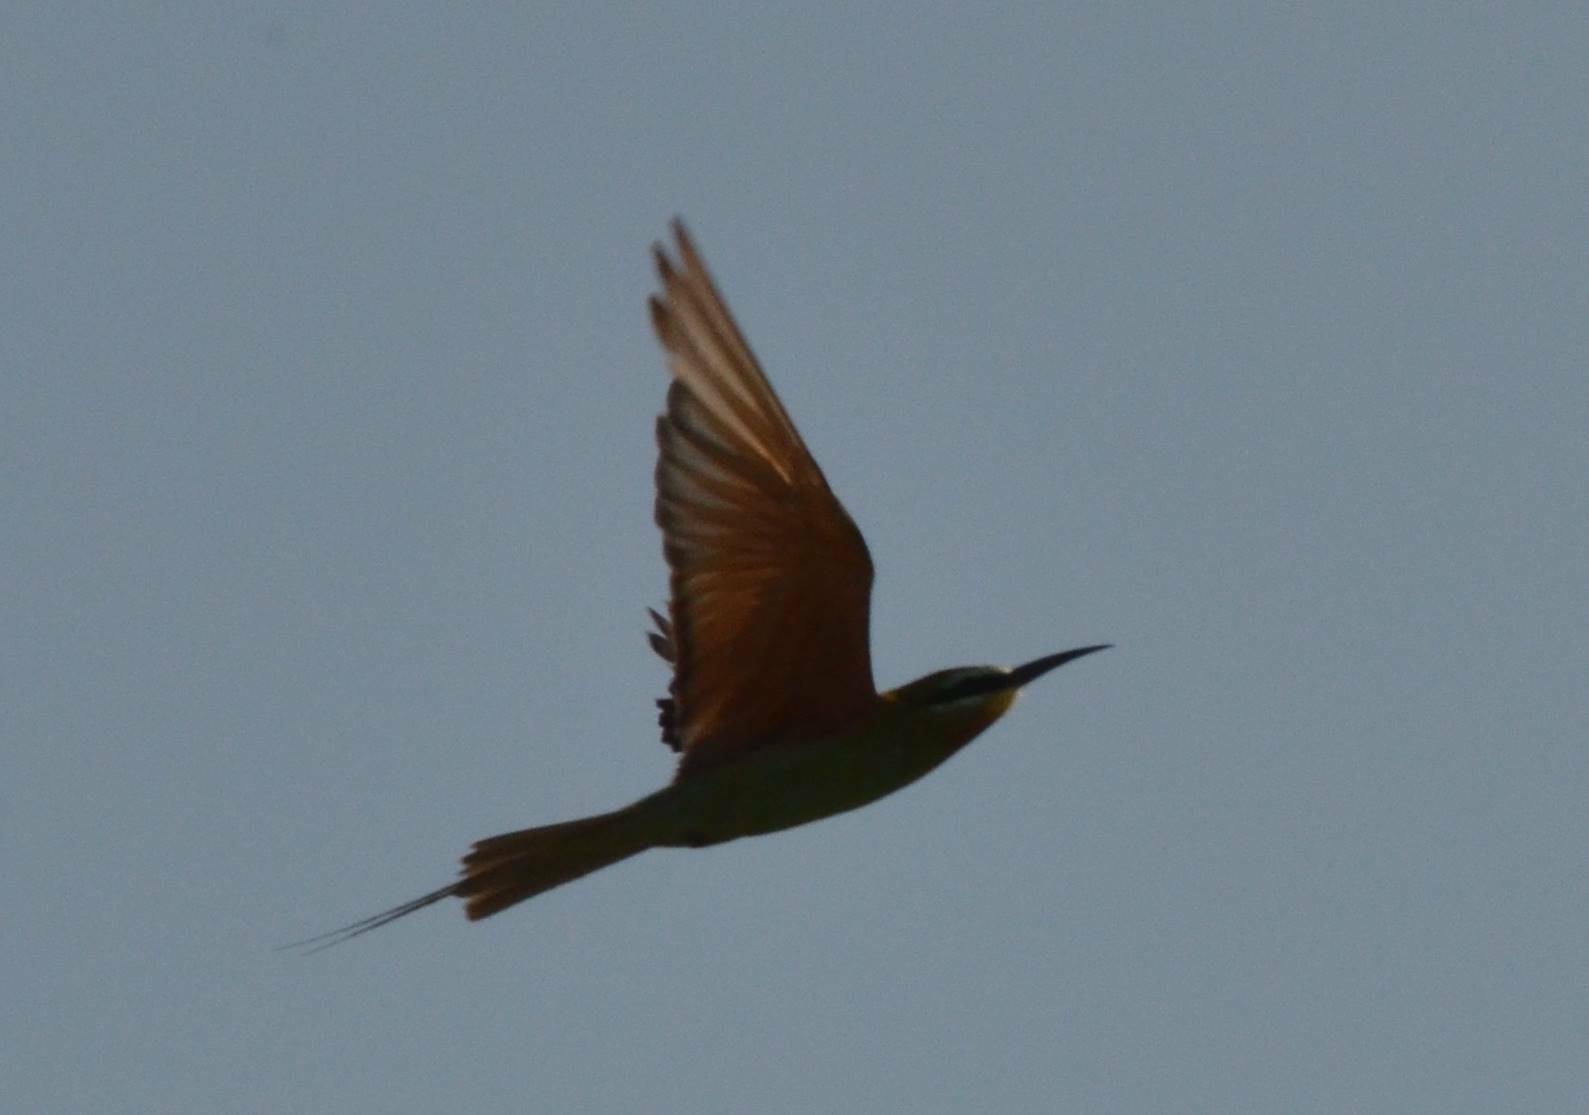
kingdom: Animalia
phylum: Chordata
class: Aves
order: Coraciiformes
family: Meropidae
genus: Merops
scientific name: Merops persicus
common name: Blue-cheeked bee-eater
